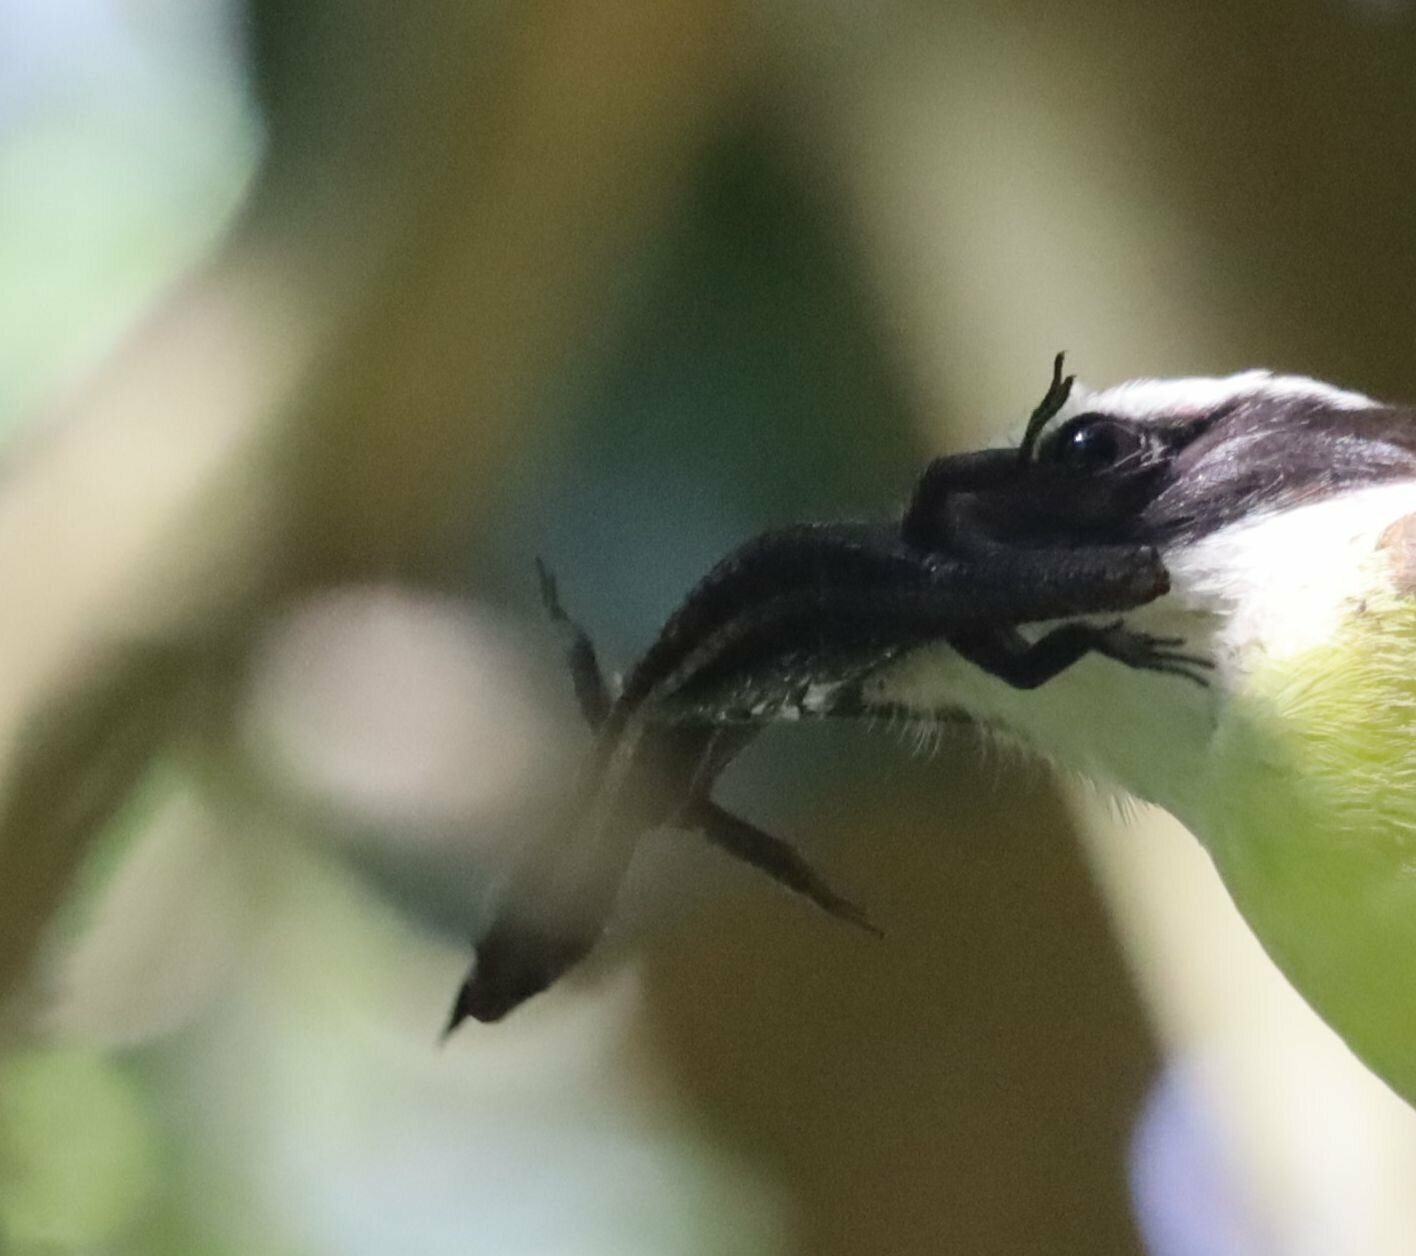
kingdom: Animalia
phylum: Chordata
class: Squamata
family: Gymnophthalmidae
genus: Pholidobolus
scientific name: Pholidobolus vertebralis
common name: Brown prionodactylus
